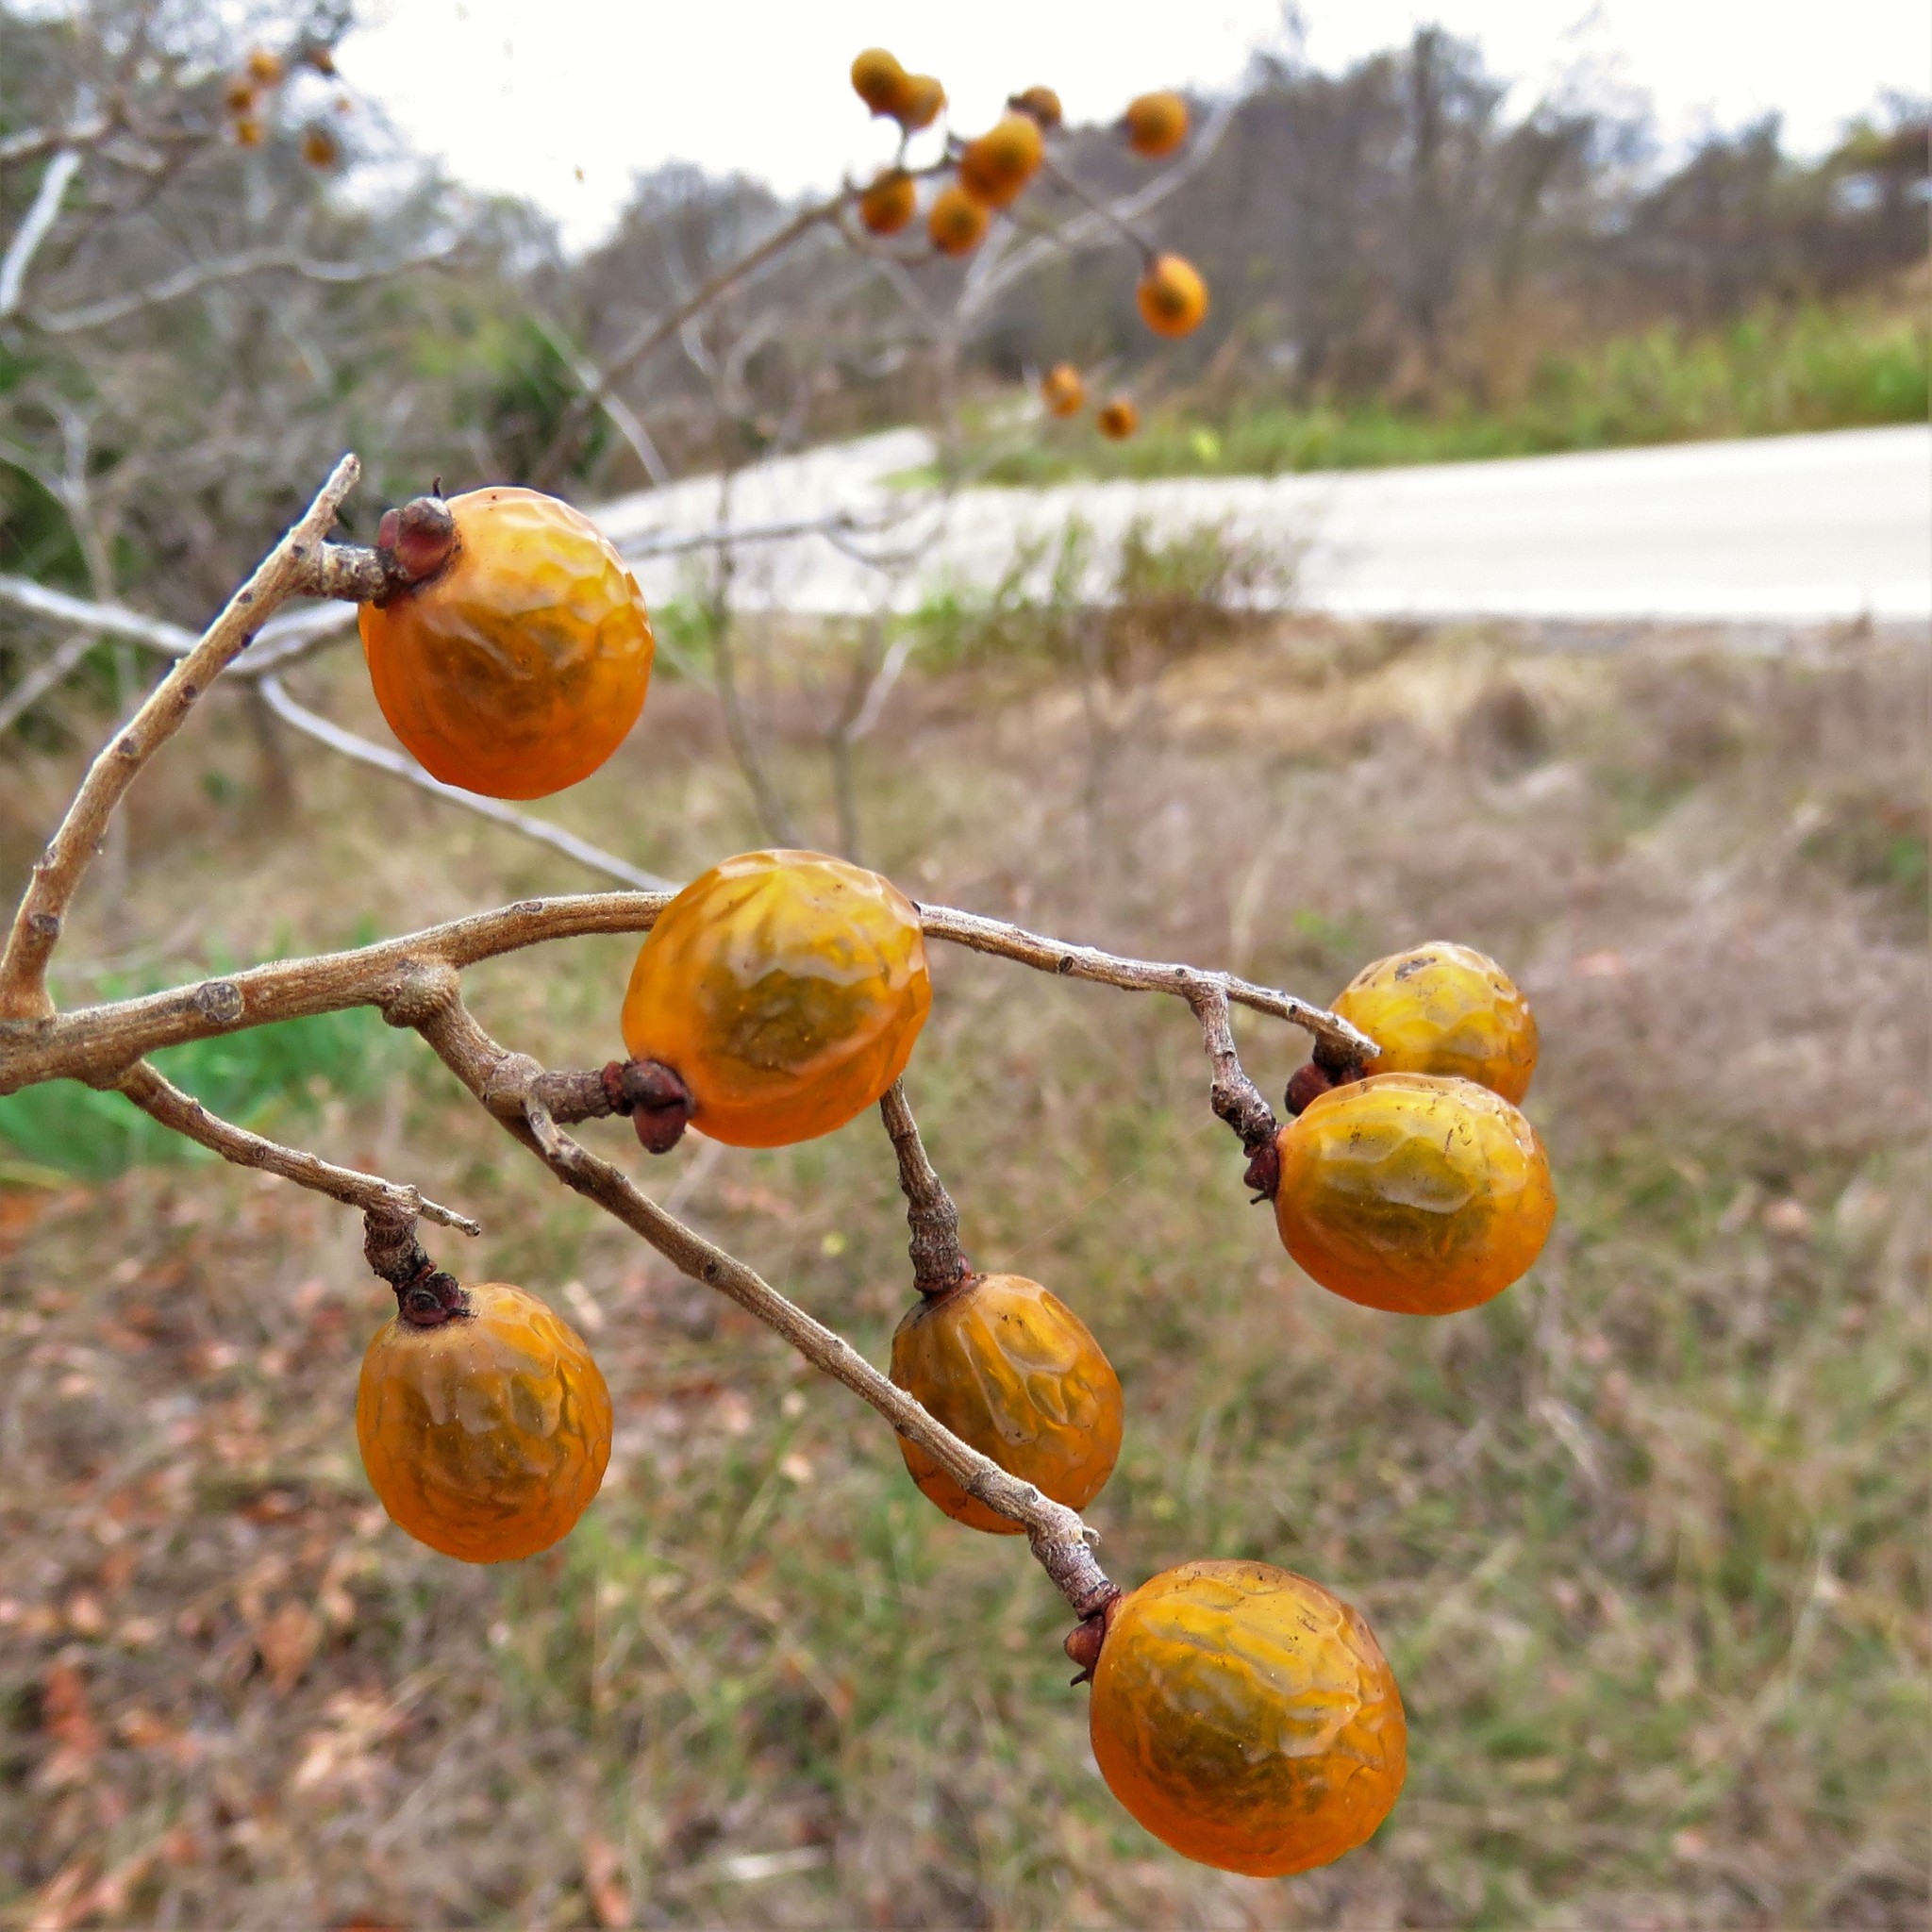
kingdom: Plantae
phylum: Tracheophyta
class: Magnoliopsida
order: Sapindales
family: Sapindaceae
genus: Sapindus
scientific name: Sapindus drummondii
